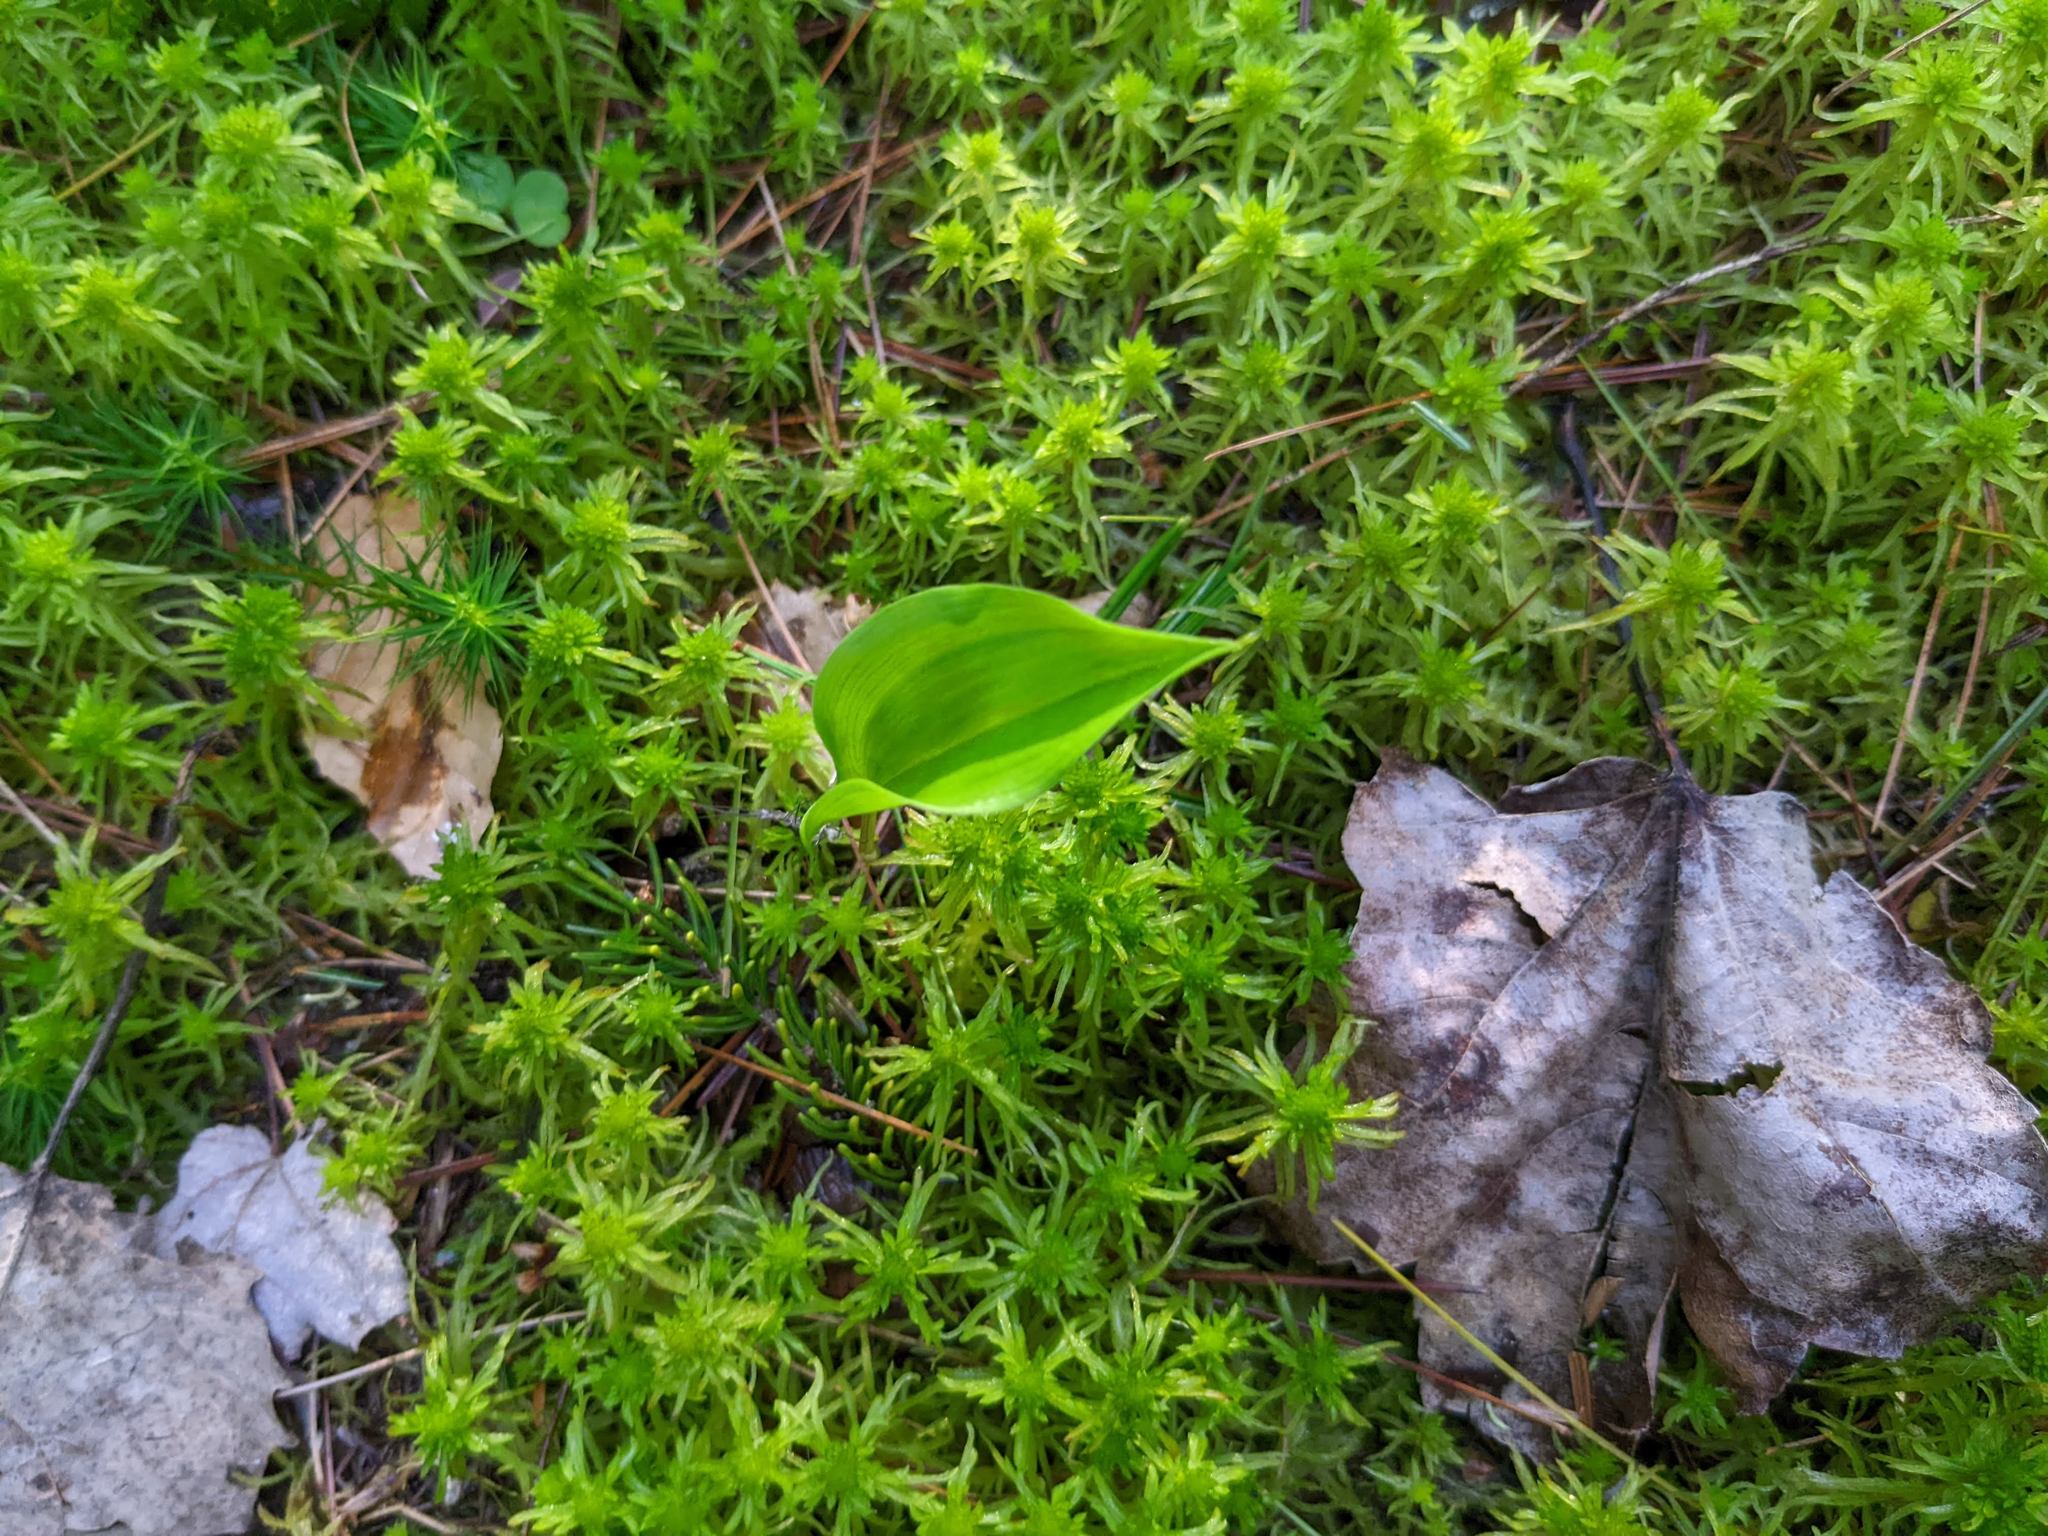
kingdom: Plantae
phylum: Tracheophyta
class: Liliopsida
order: Asparagales
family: Asparagaceae
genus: Maianthemum
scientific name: Maianthemum canadense
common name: False lily-of-the-valley
